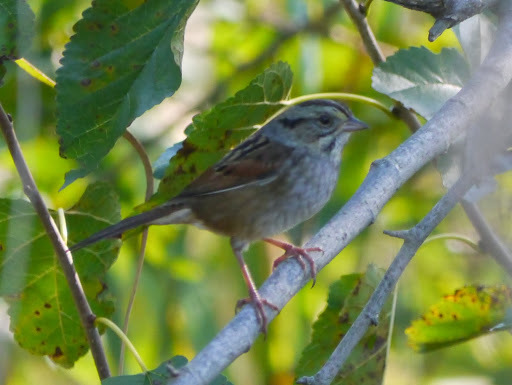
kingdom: Animalia
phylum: Chordata
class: Aves
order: Passeriformes
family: Passerellidae
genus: Melospiza
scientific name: Melospiza georgiana
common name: Swamp sparrow
